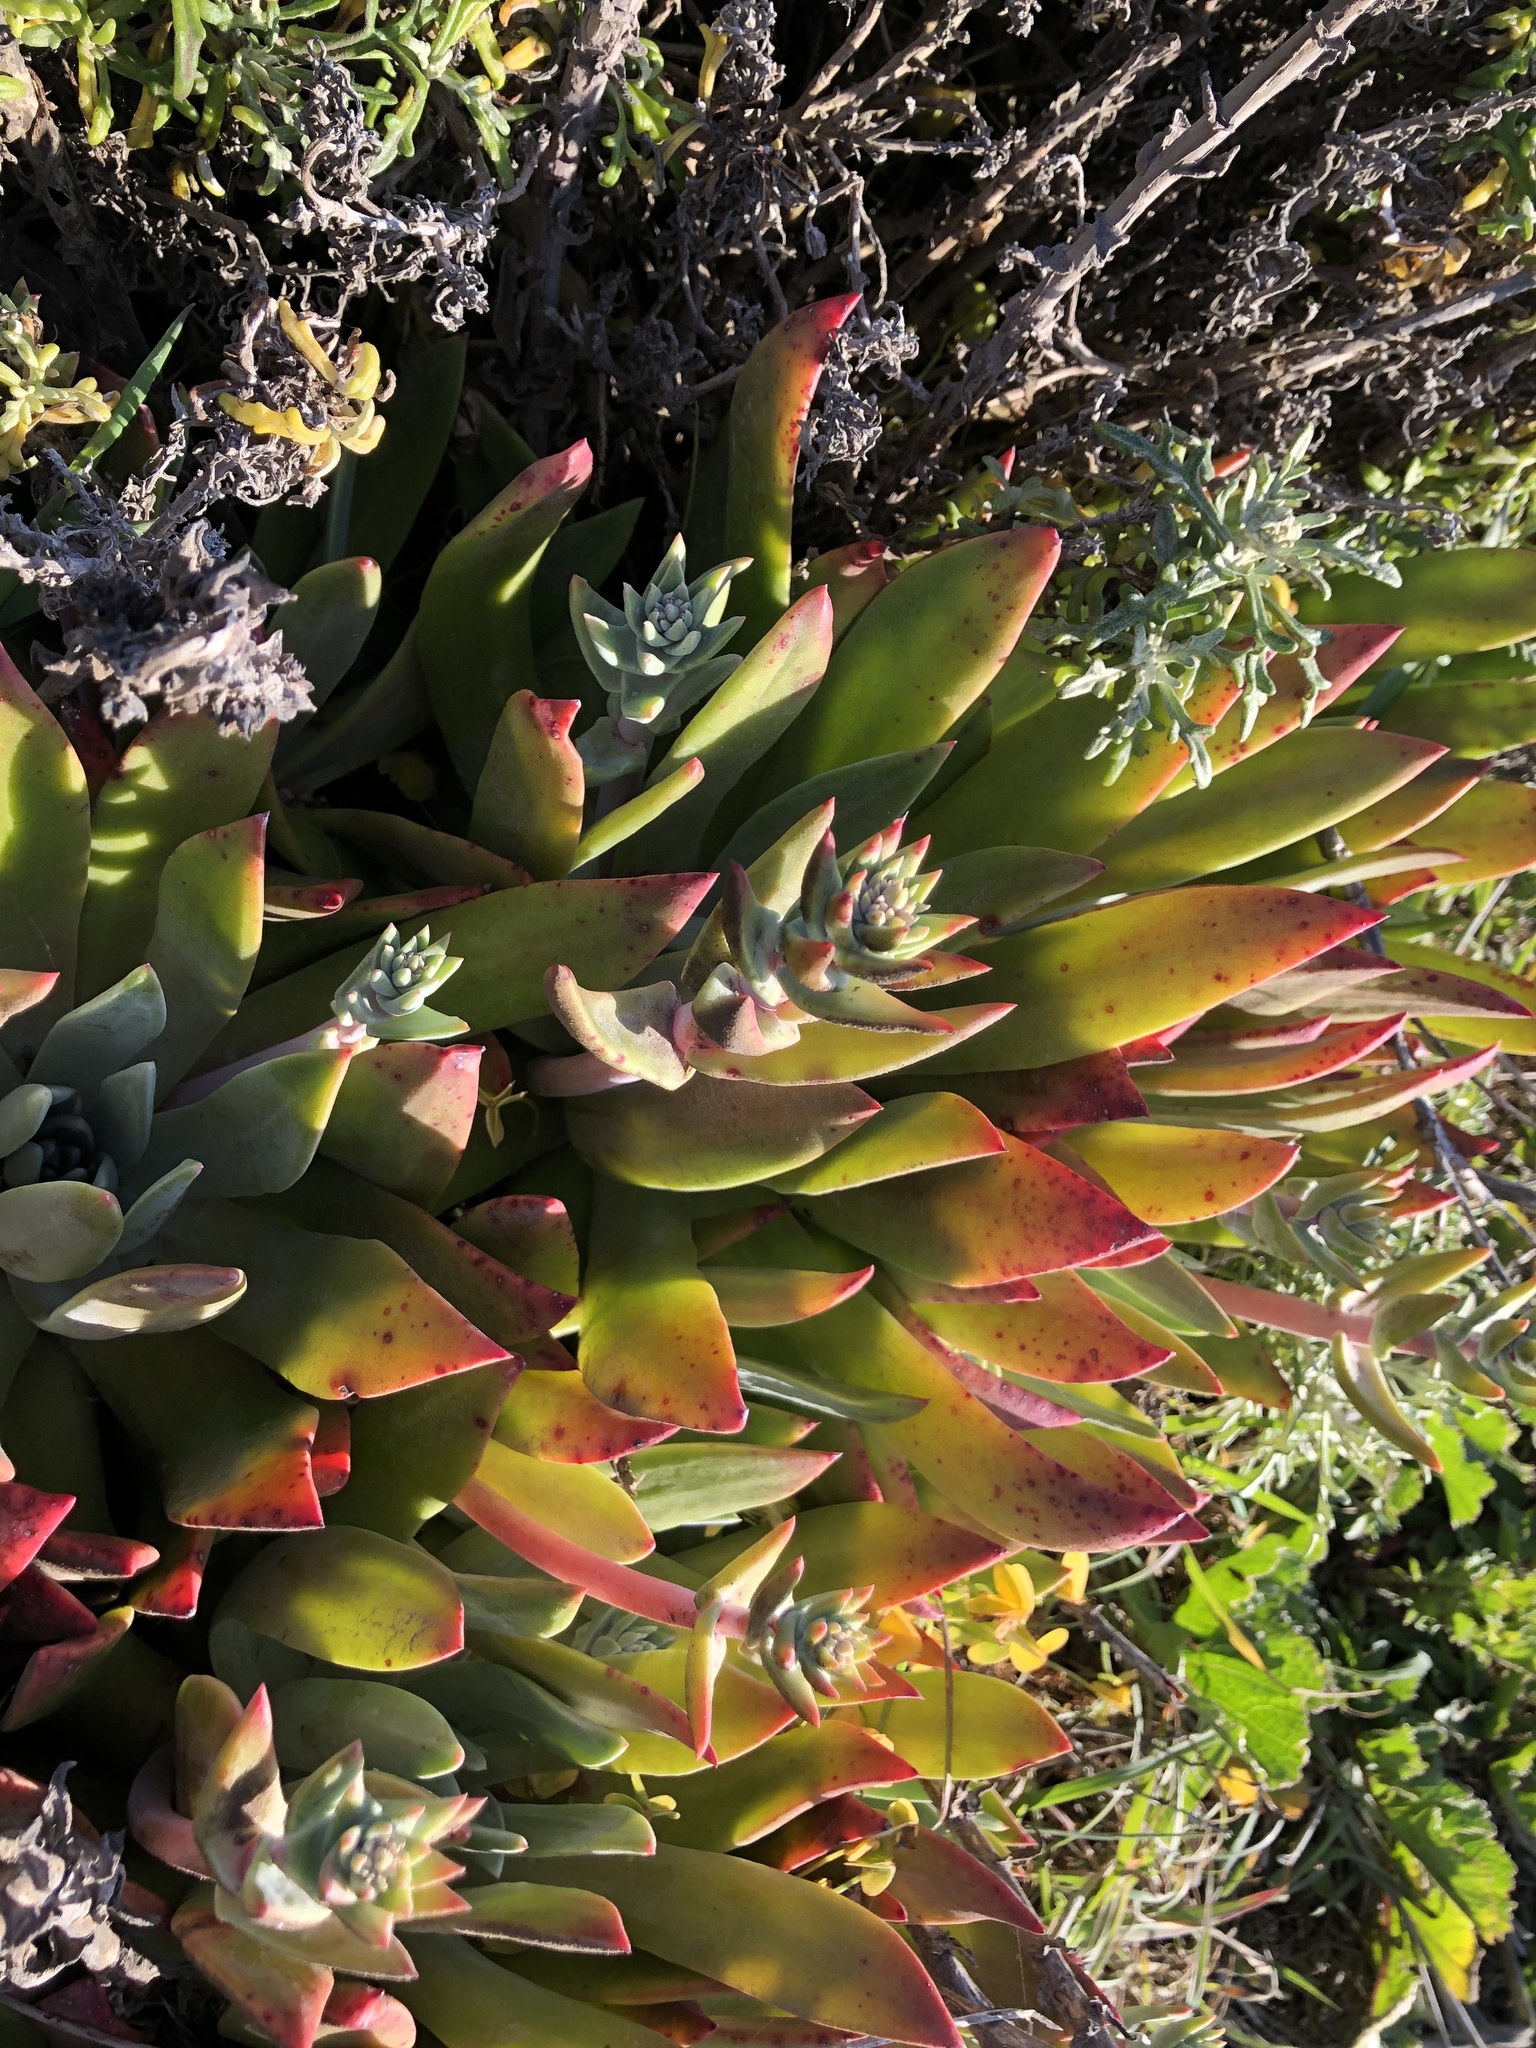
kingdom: Plantae
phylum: Tracheophyta
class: Magnoliopsida
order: Saxifragales
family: Crassulaceae
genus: Dudleya
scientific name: Dudleya caespitosa
